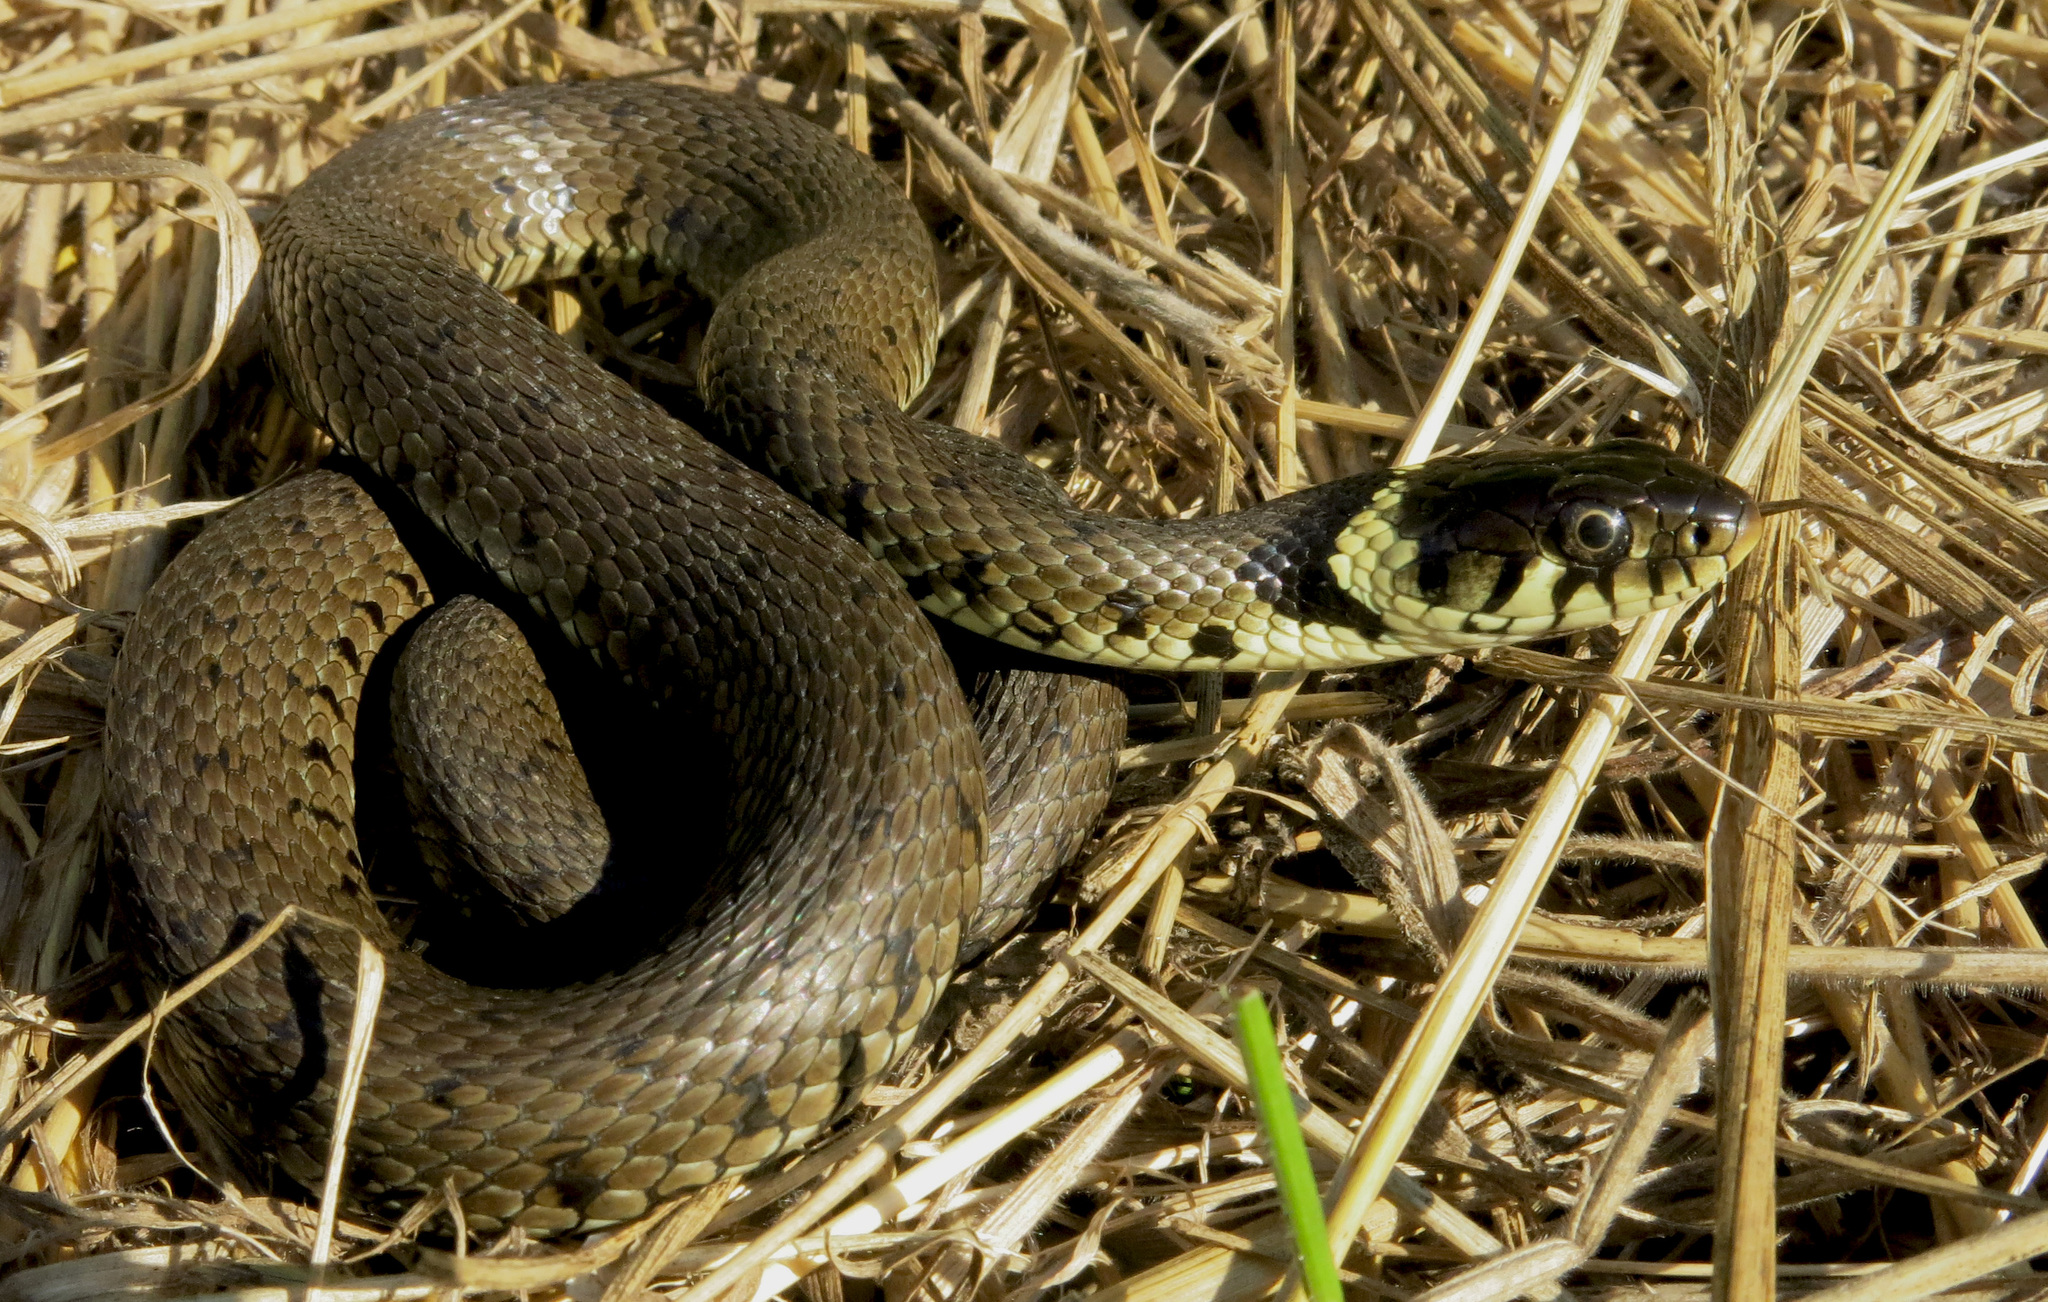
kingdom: Animalia
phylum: Chordata
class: Squamata
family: Colubridae
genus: Natrix
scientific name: Natrix helvetica
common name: Banded grass snake
